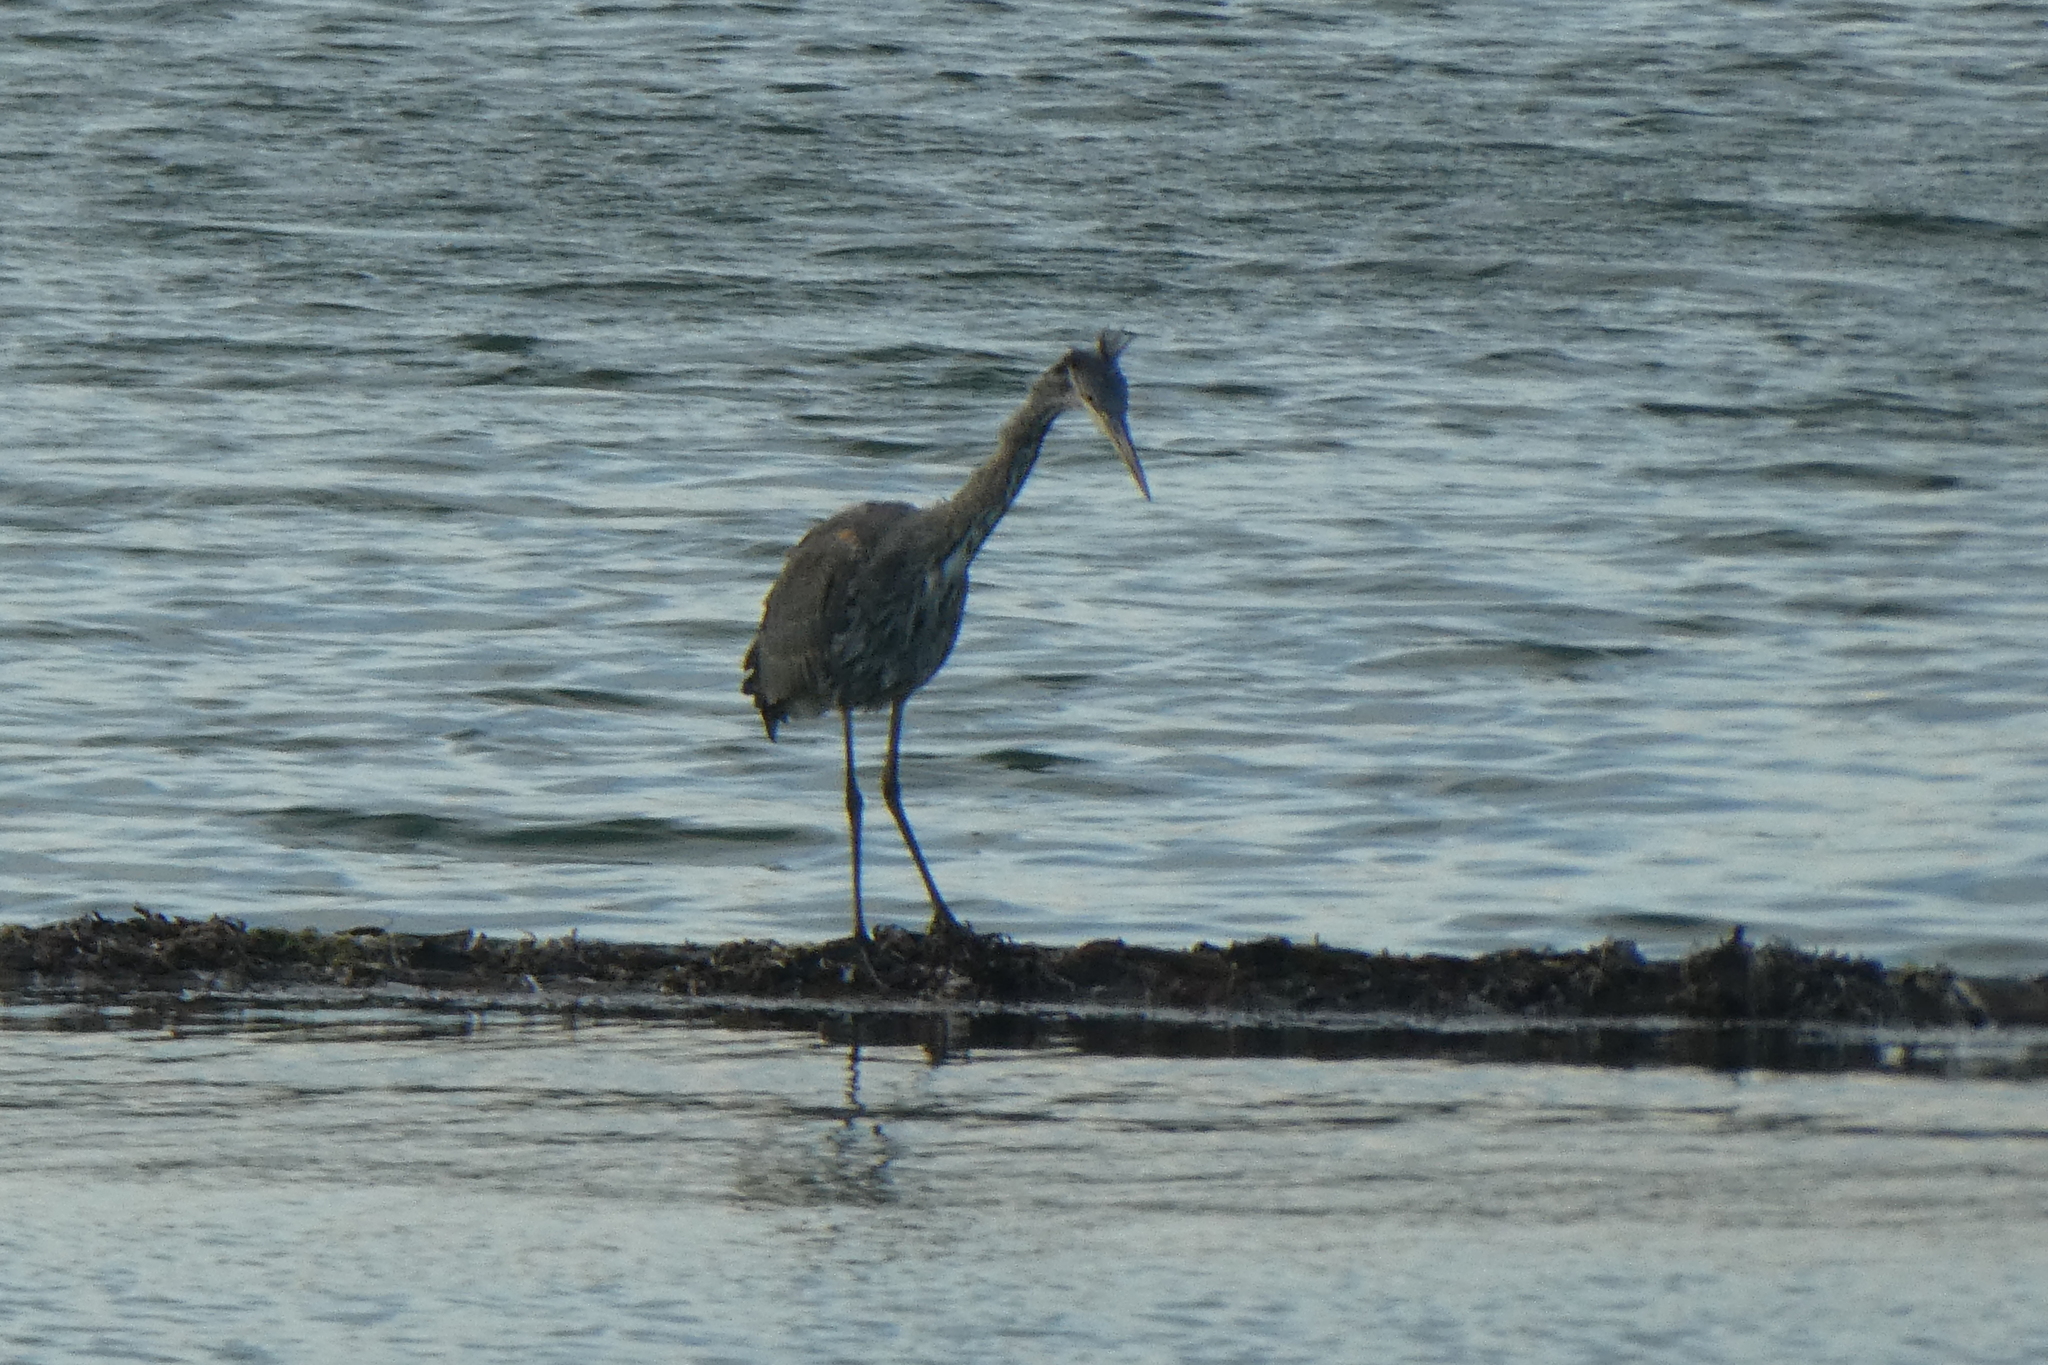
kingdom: Animalia
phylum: Chordata
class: Aves
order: Pelecaniformes
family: Ardeidae
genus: Ardea
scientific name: Ardea herodias
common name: Great blue heron
